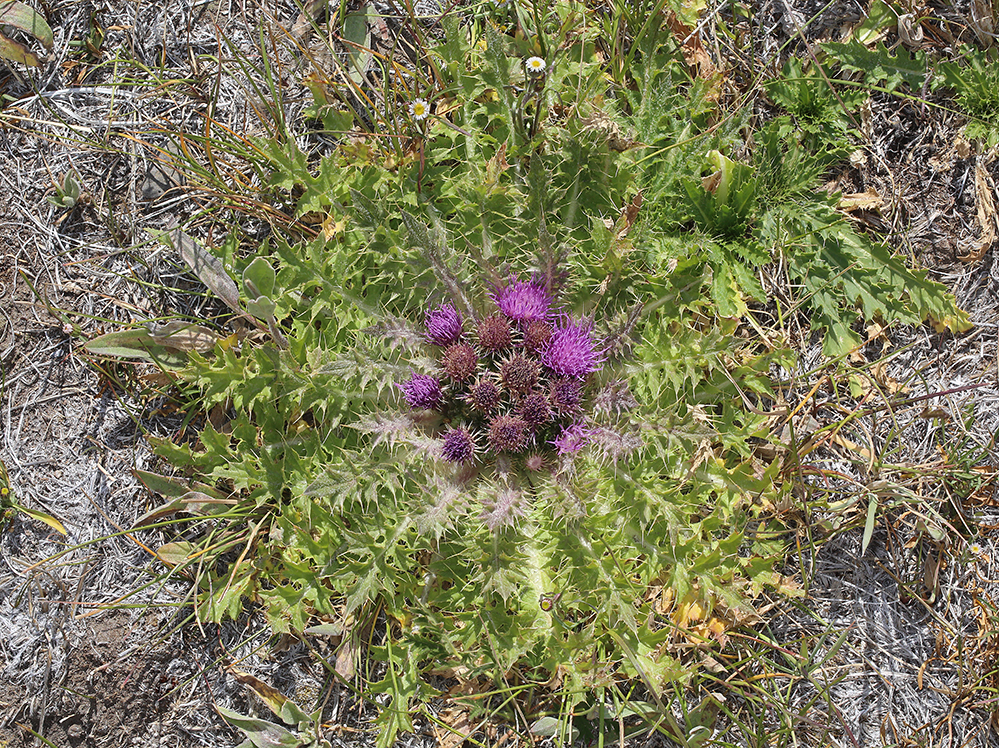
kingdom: Plantae
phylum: Tracheophyta
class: Magnoliopsida
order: Asterales
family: Asteraceae
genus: Cirsium
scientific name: Cirsium congdonii
